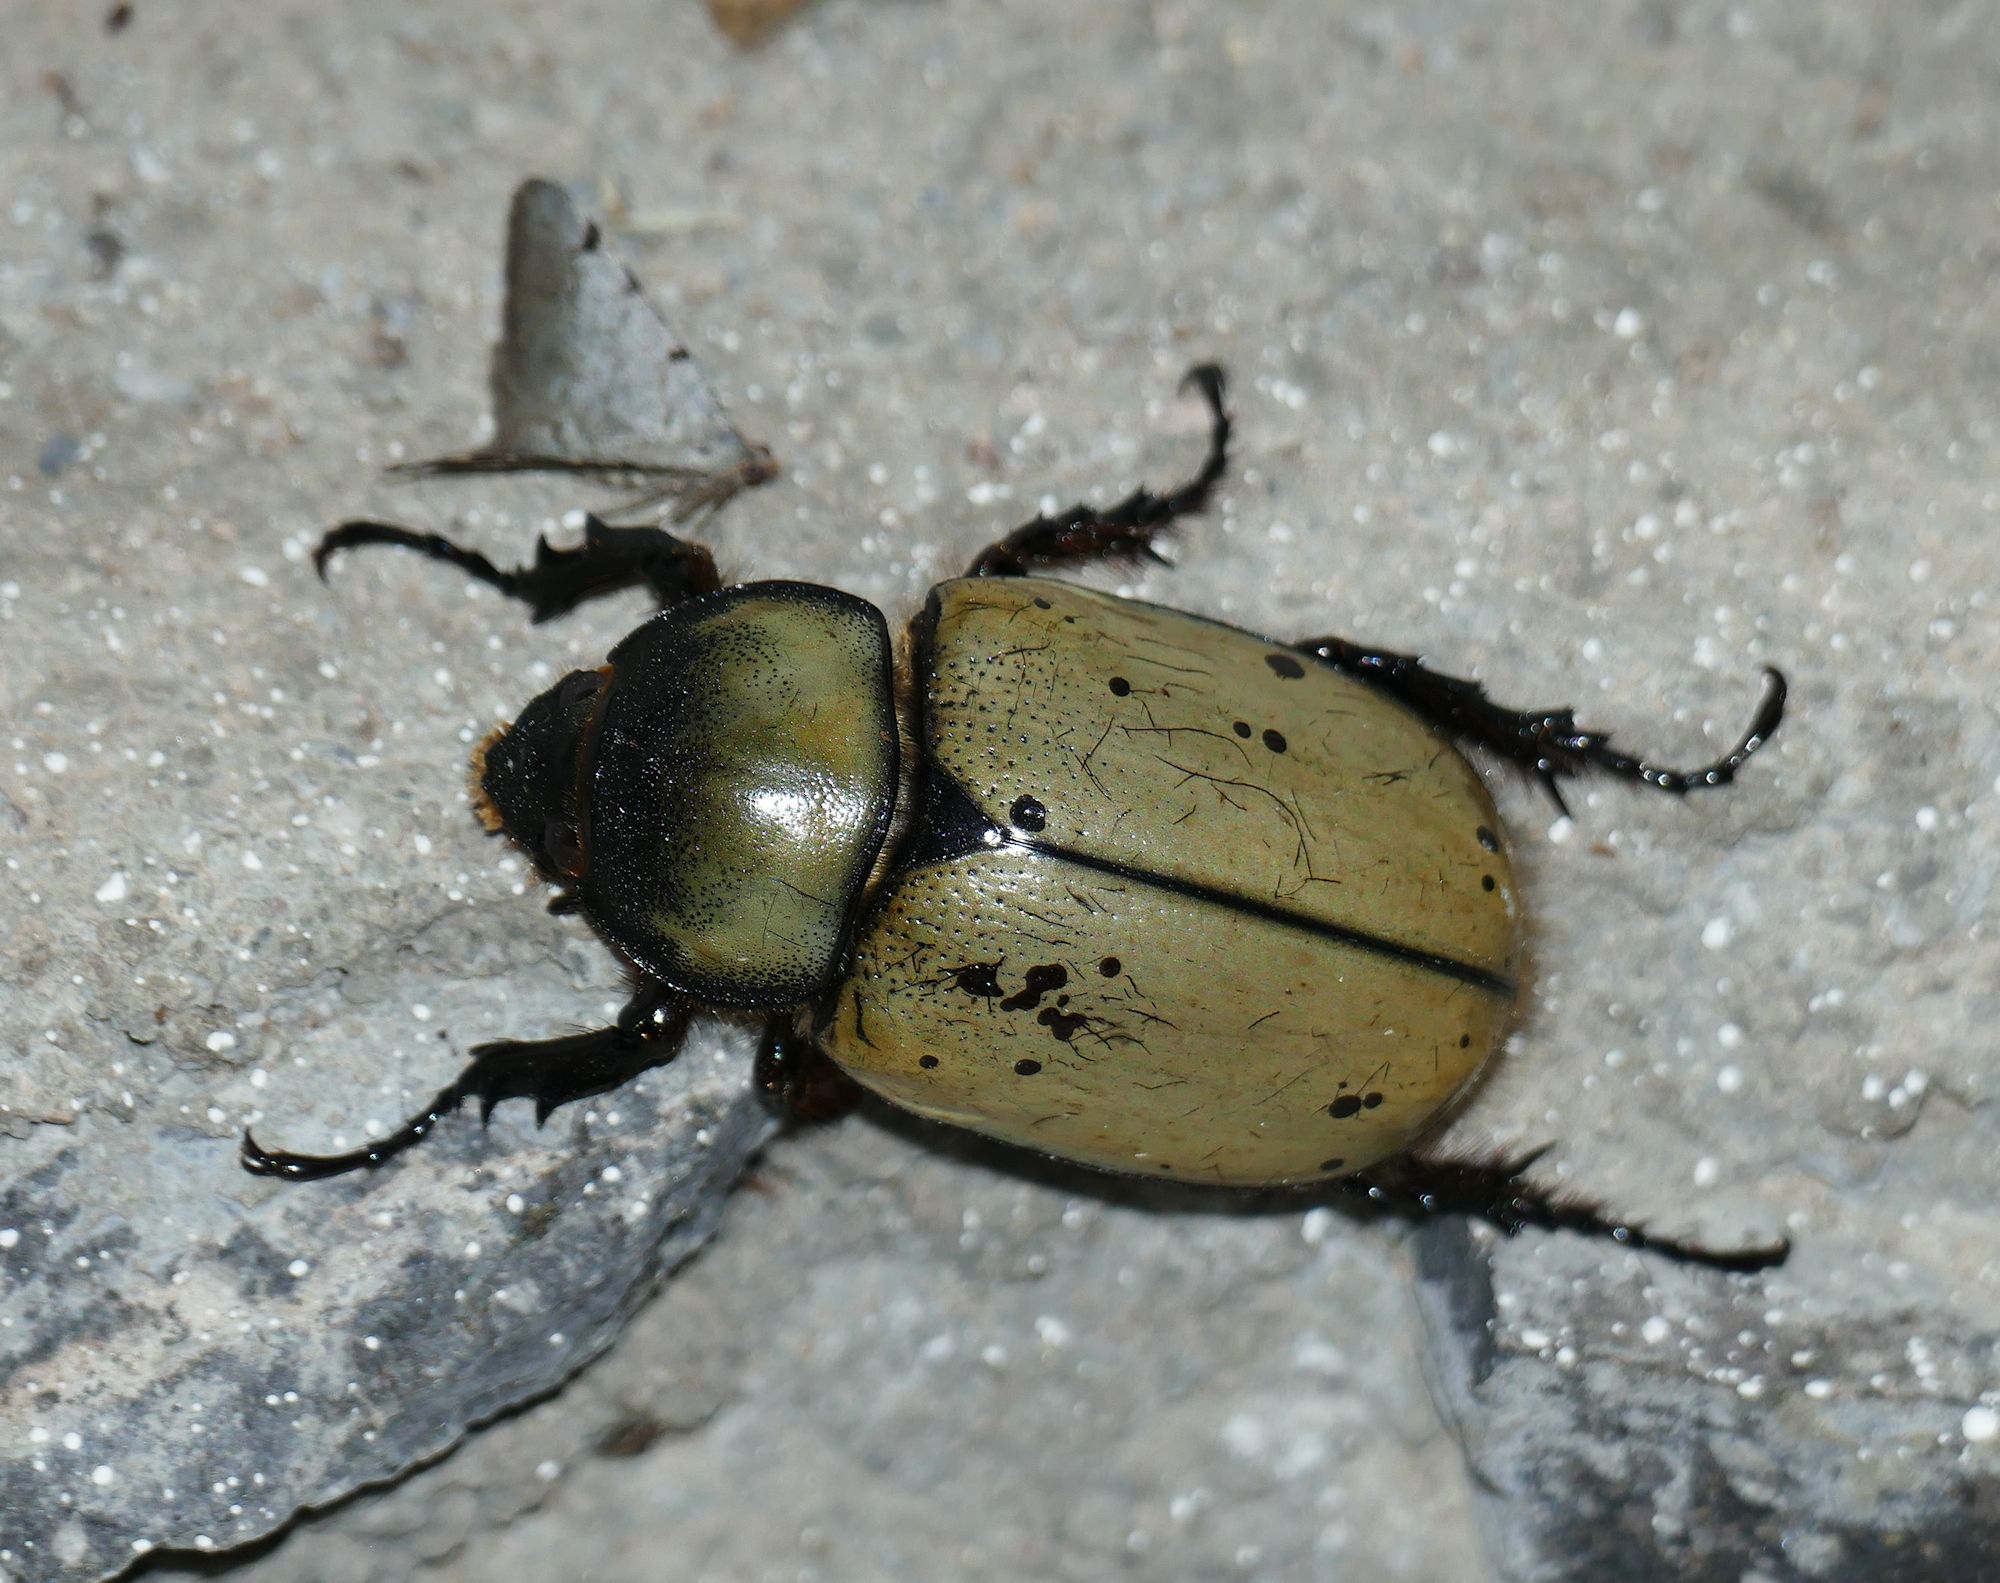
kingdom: Animalia
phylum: Arthropoda
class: Insecta
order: Coleoptera
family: Scarabaeidae
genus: Dynastes
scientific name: Dynastes grantii
